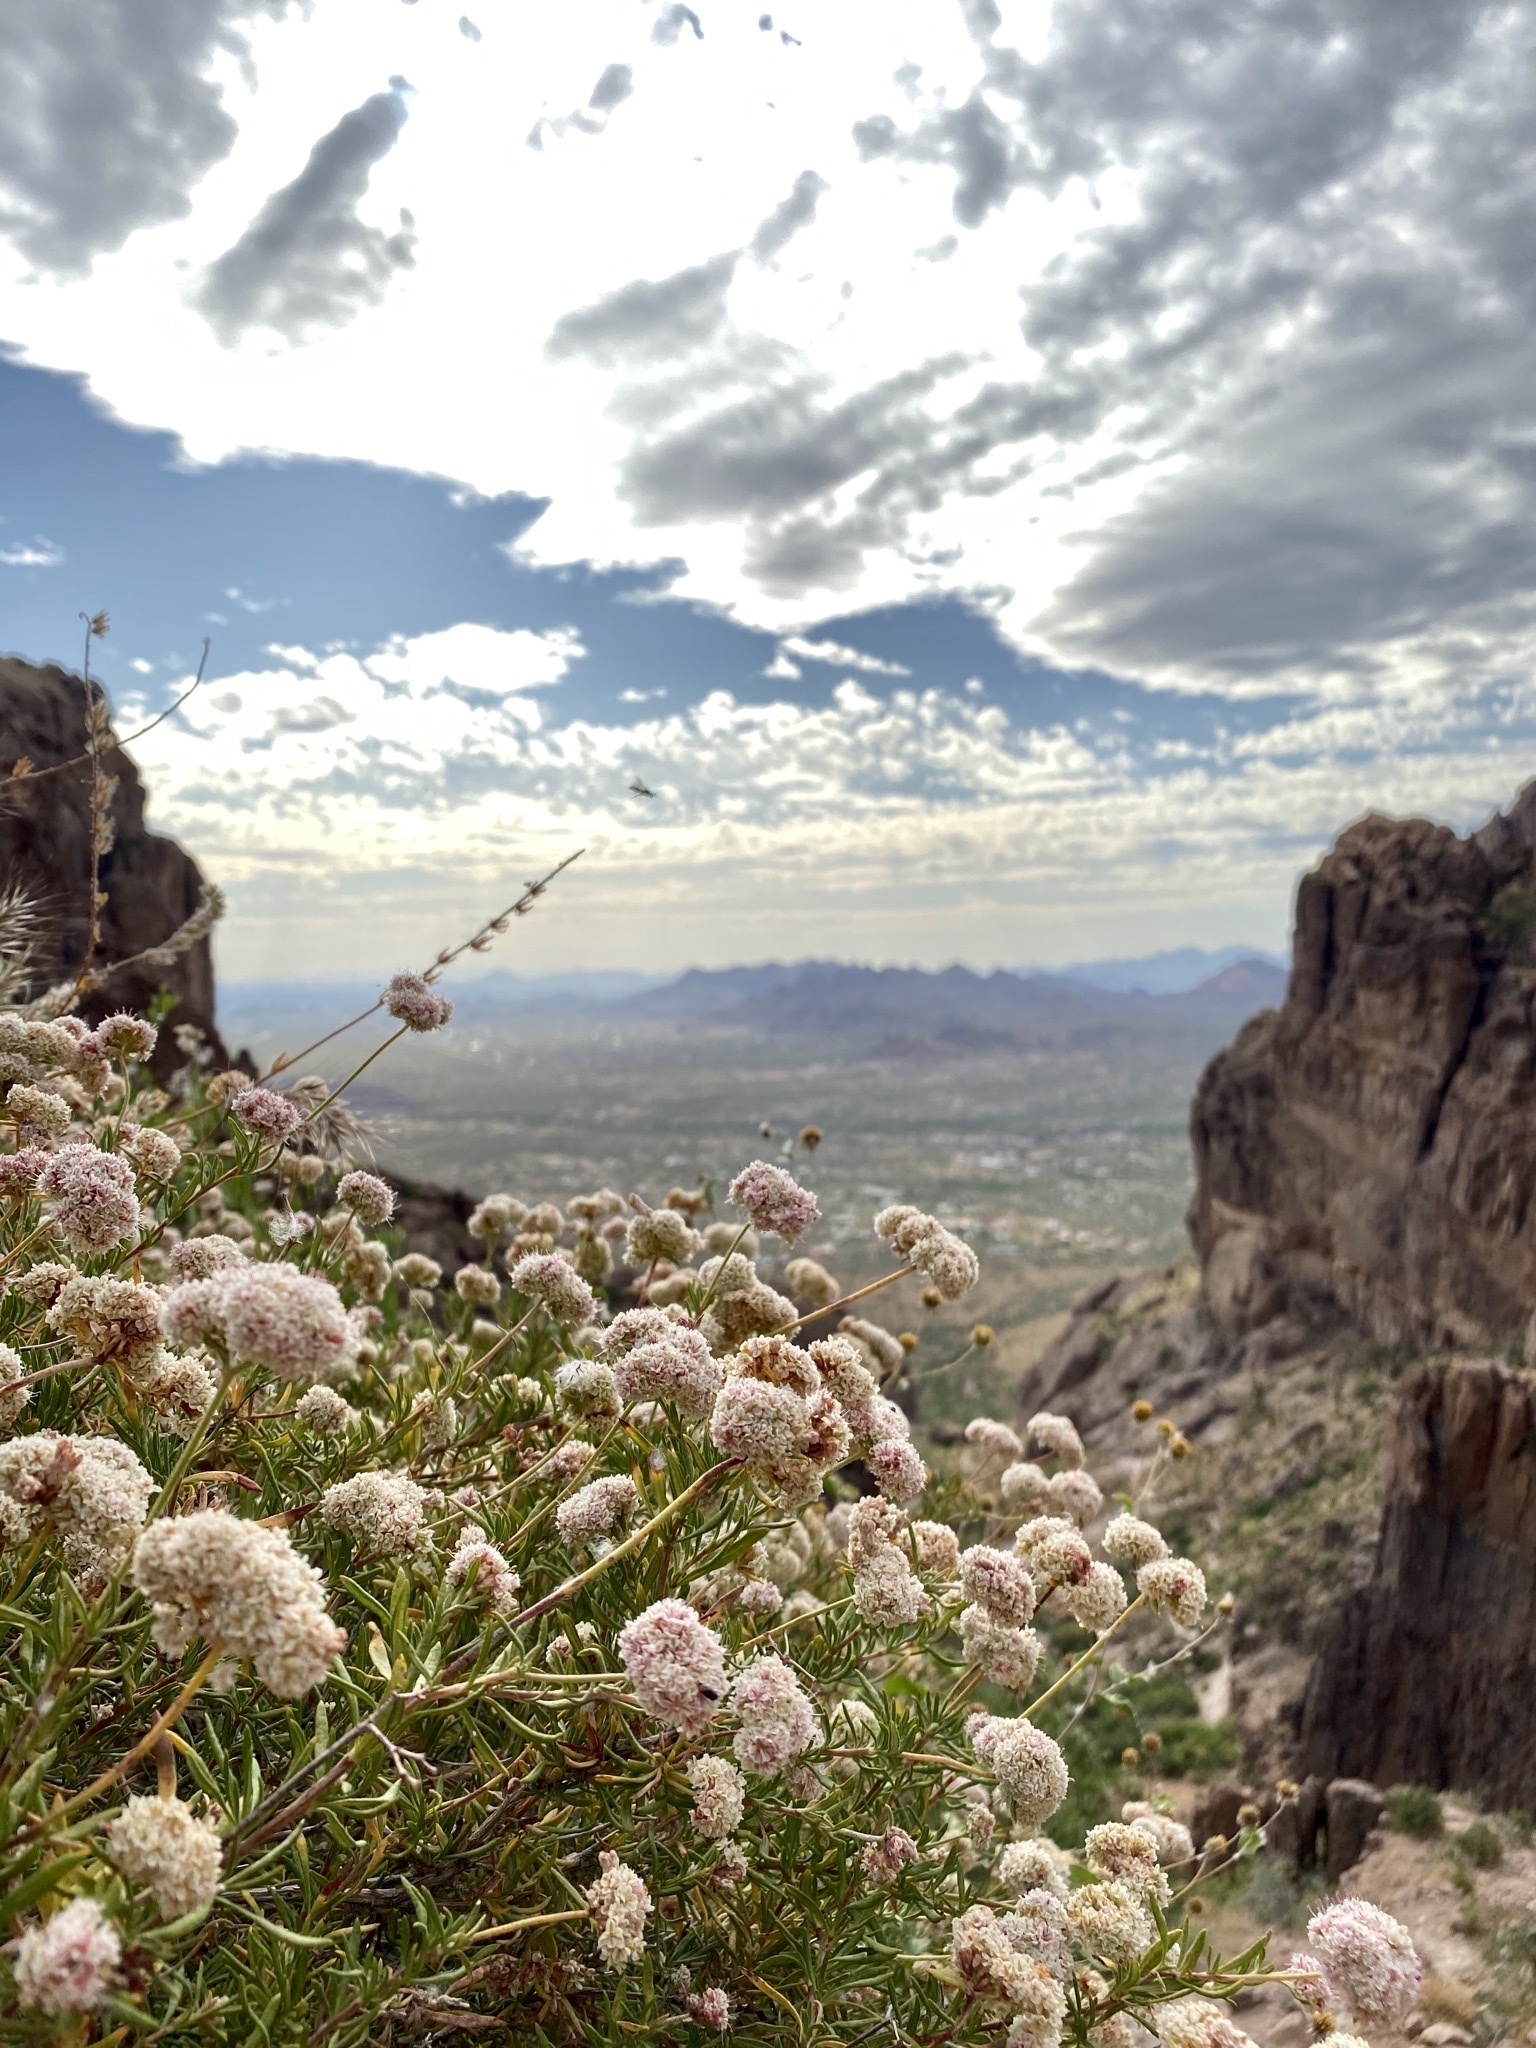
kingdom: Plantae
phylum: Tracheophyta
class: Magnoliopsida
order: Caryophyllales
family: Polygonaceae
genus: Eriogonum
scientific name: Eriogonum fasciculatum
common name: California wild buckwheat
